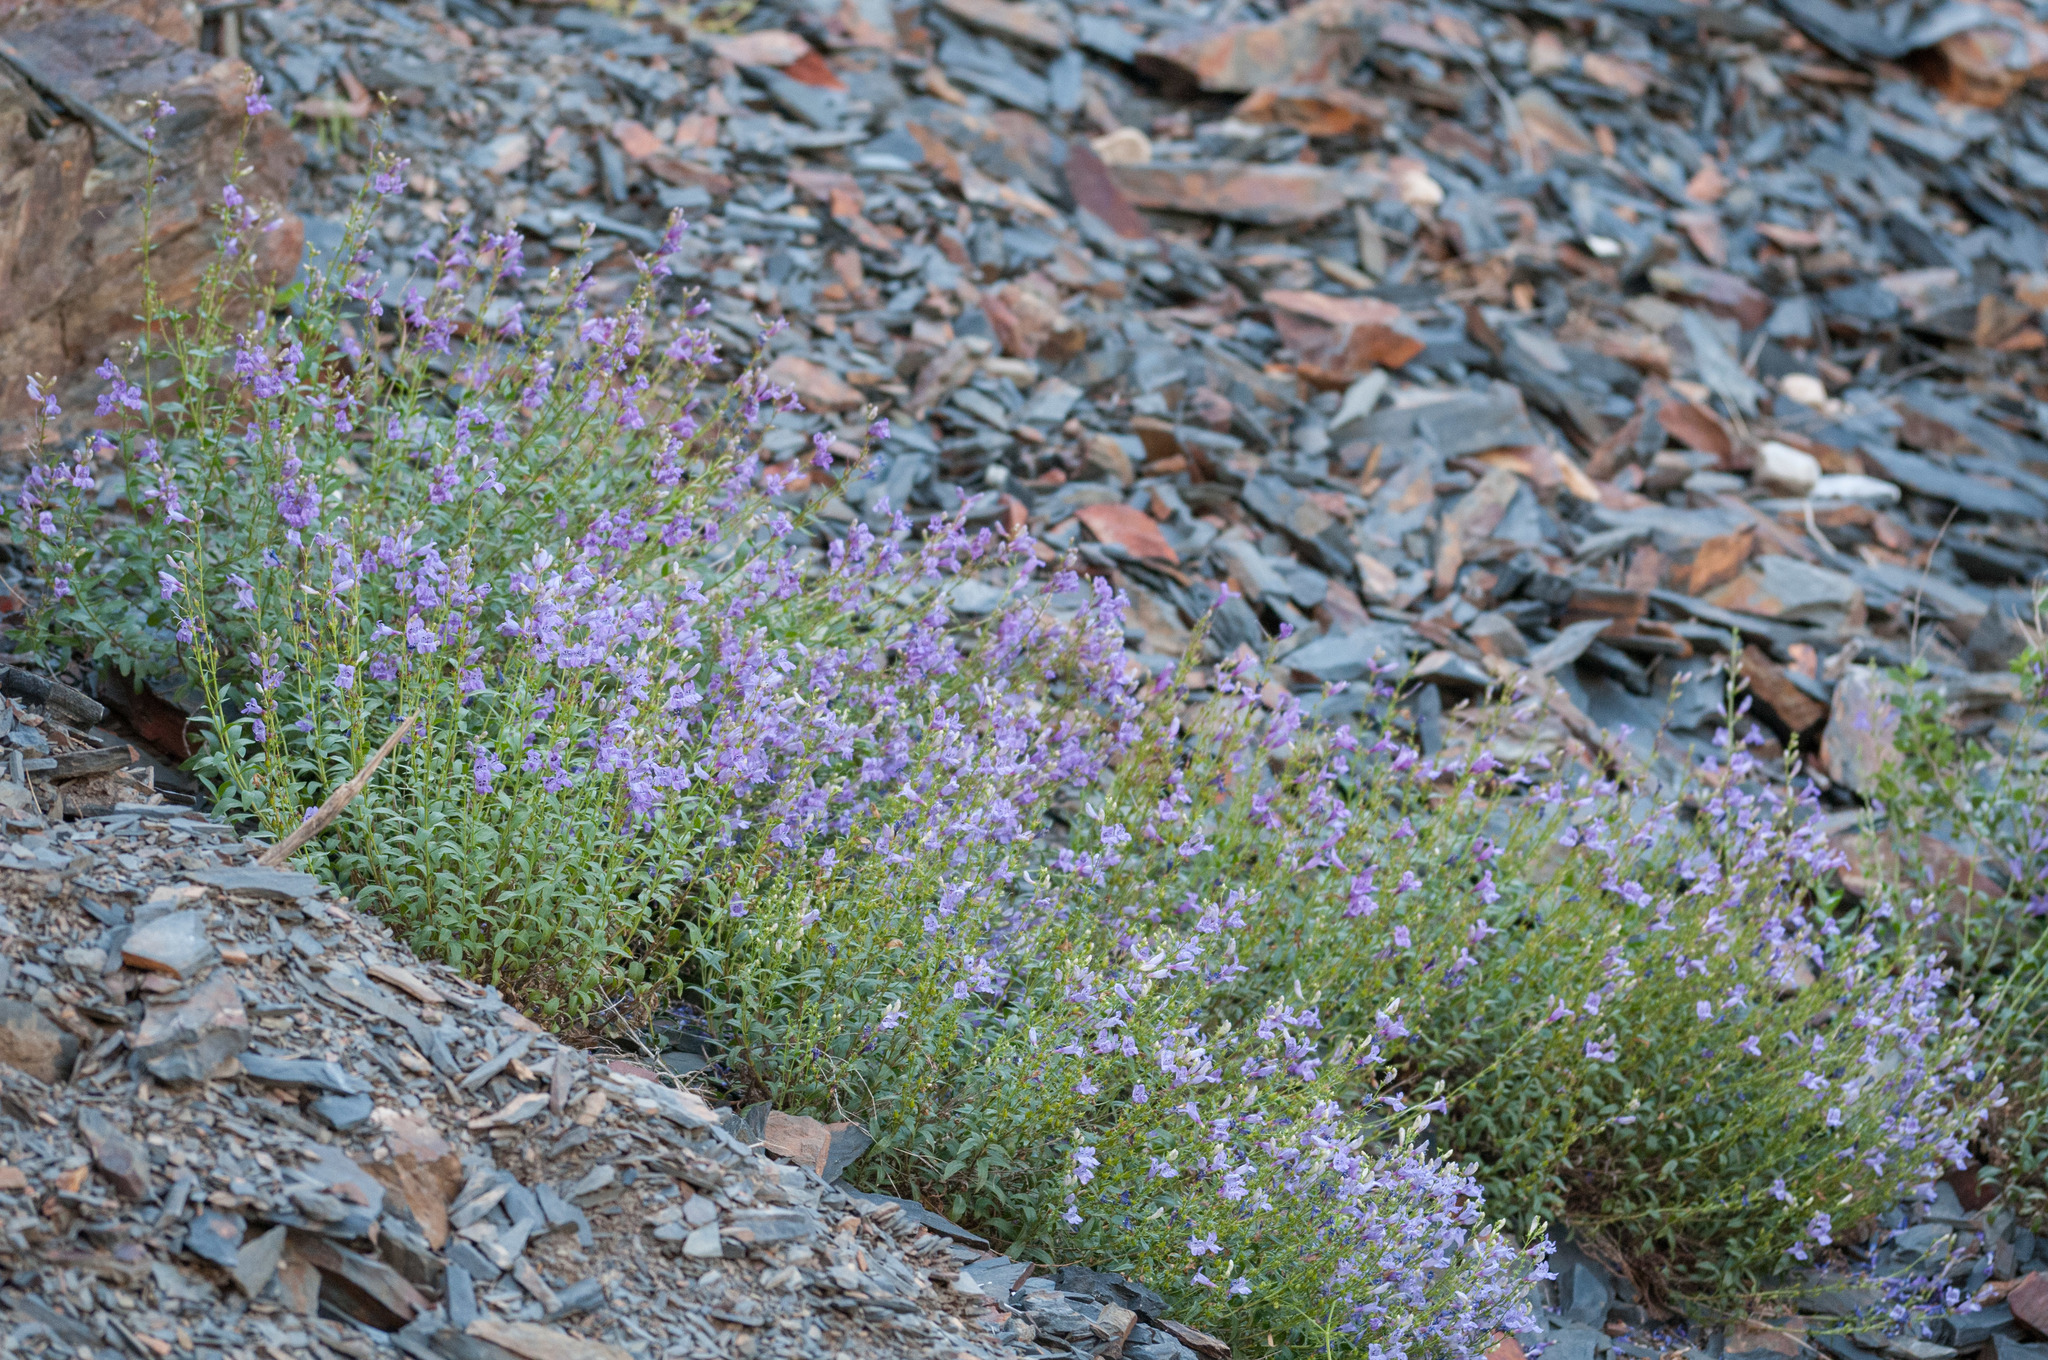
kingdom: Plantae
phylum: Tracheophyta
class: Magnoliopsida
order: Lamiales
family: Plantaginaceae
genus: Penstemon
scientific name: Penstemon leonardii
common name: Leonard's penstemon
